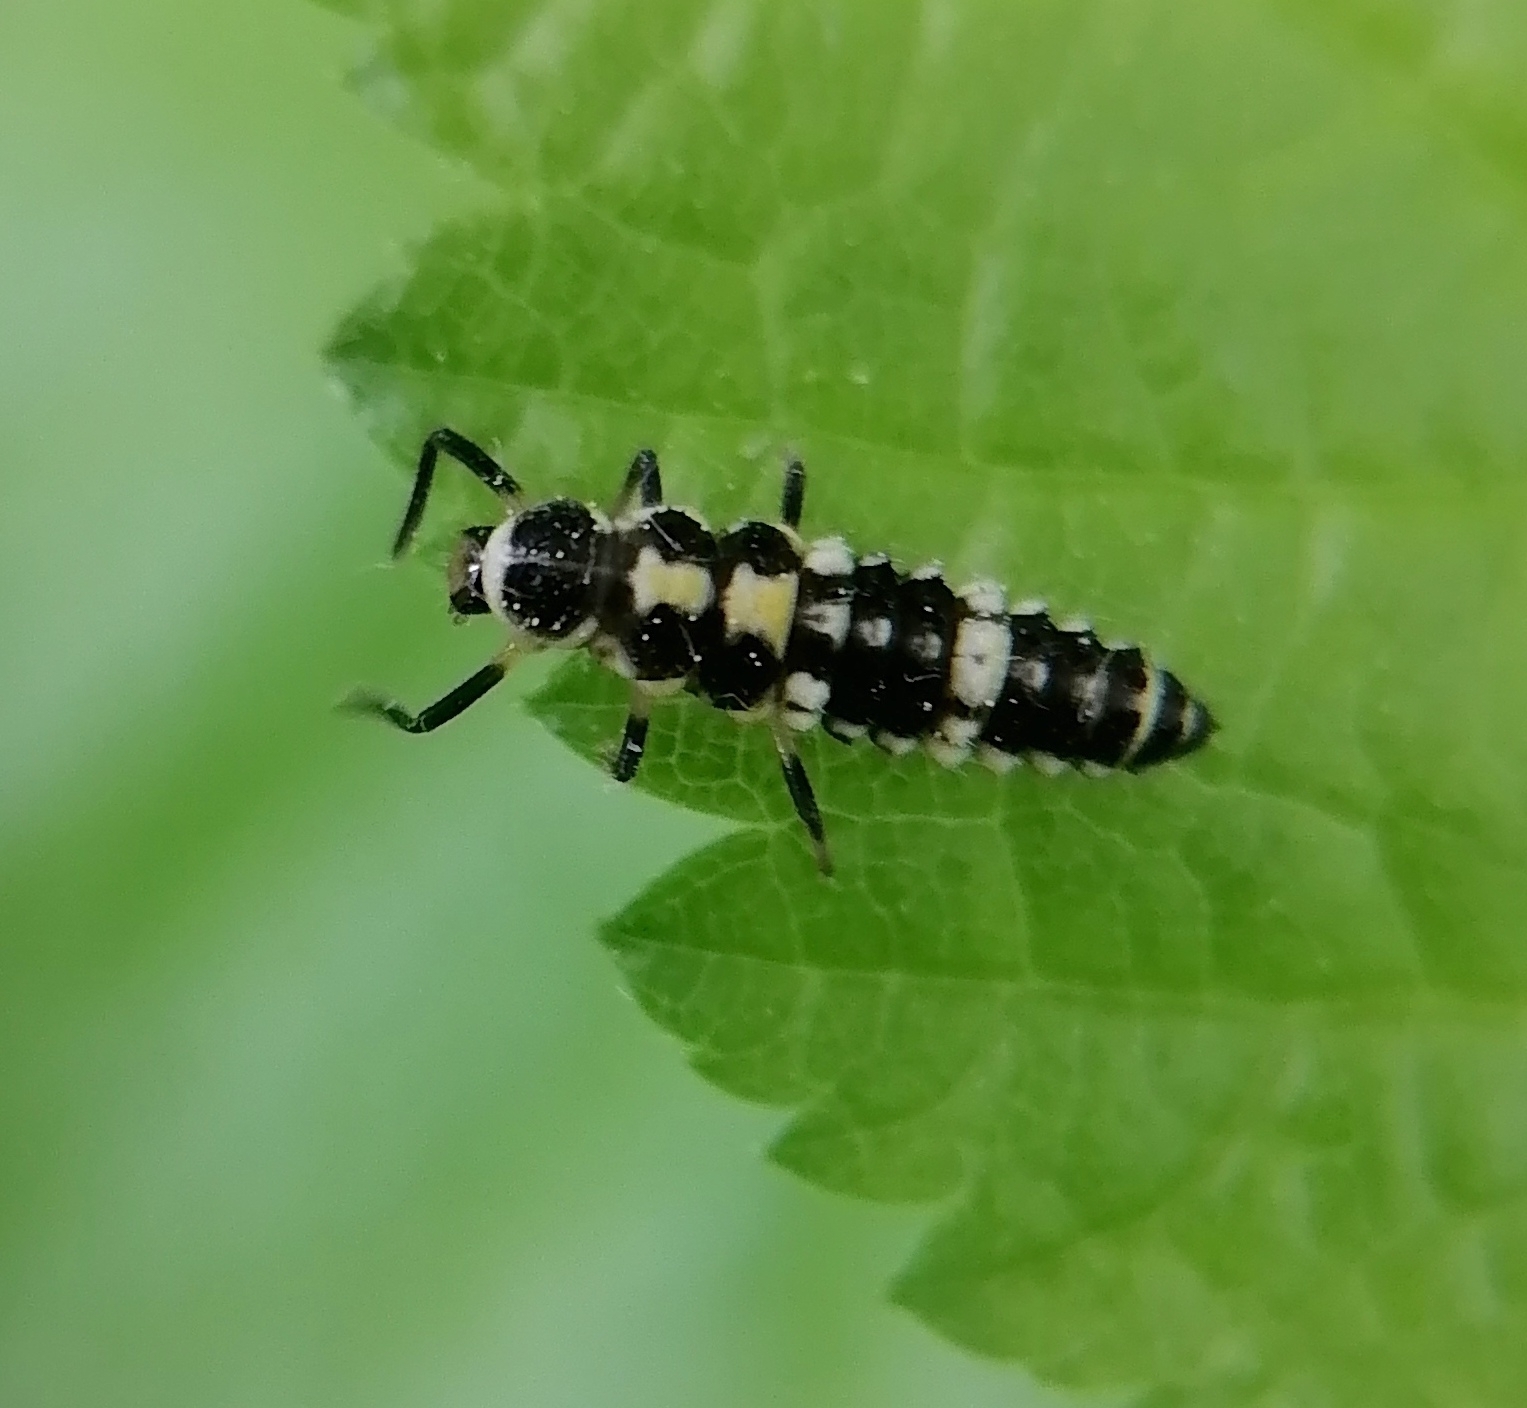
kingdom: Animalia
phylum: Arthropoda
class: Insecta
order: Coleoptera
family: Coccinellidae
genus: Propylaea
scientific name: Propylaea quatuordecimpunctata
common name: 14-spotted ladybird beetle
